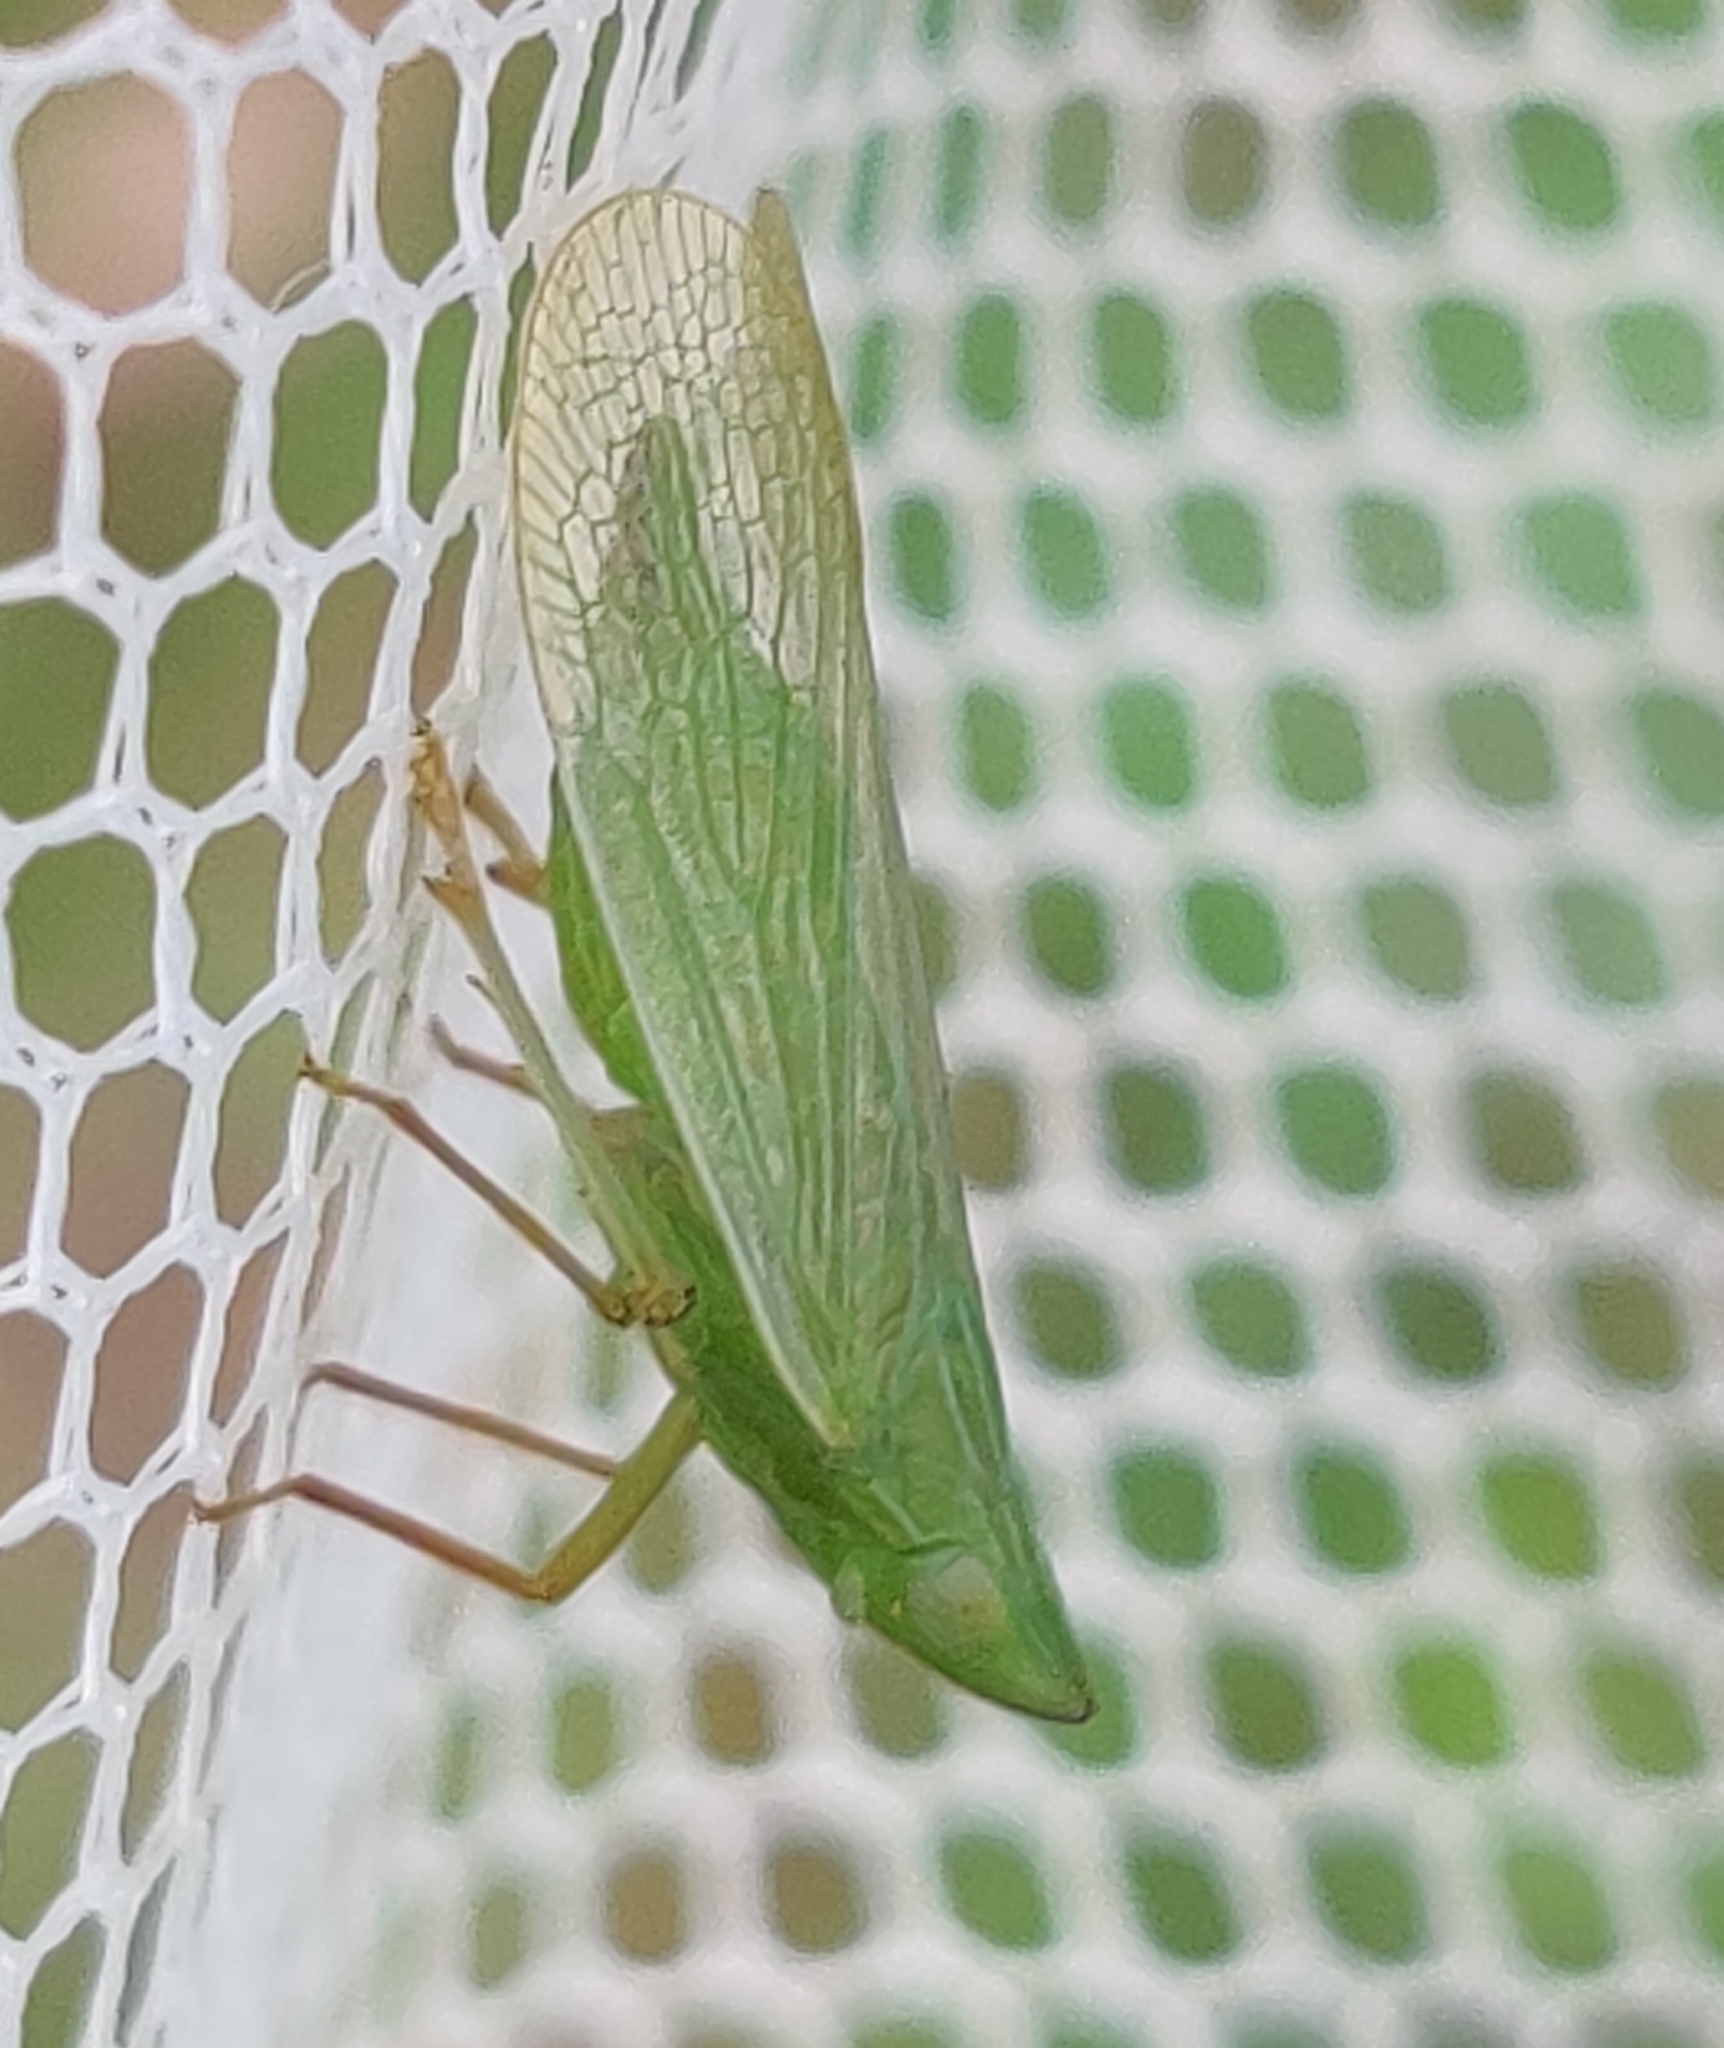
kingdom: Animalia
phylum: Arthropoda
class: Insecta
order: Hemiptera
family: Dictyopharidae
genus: Rhynchomitra
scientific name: Rhynchomitra lingula
